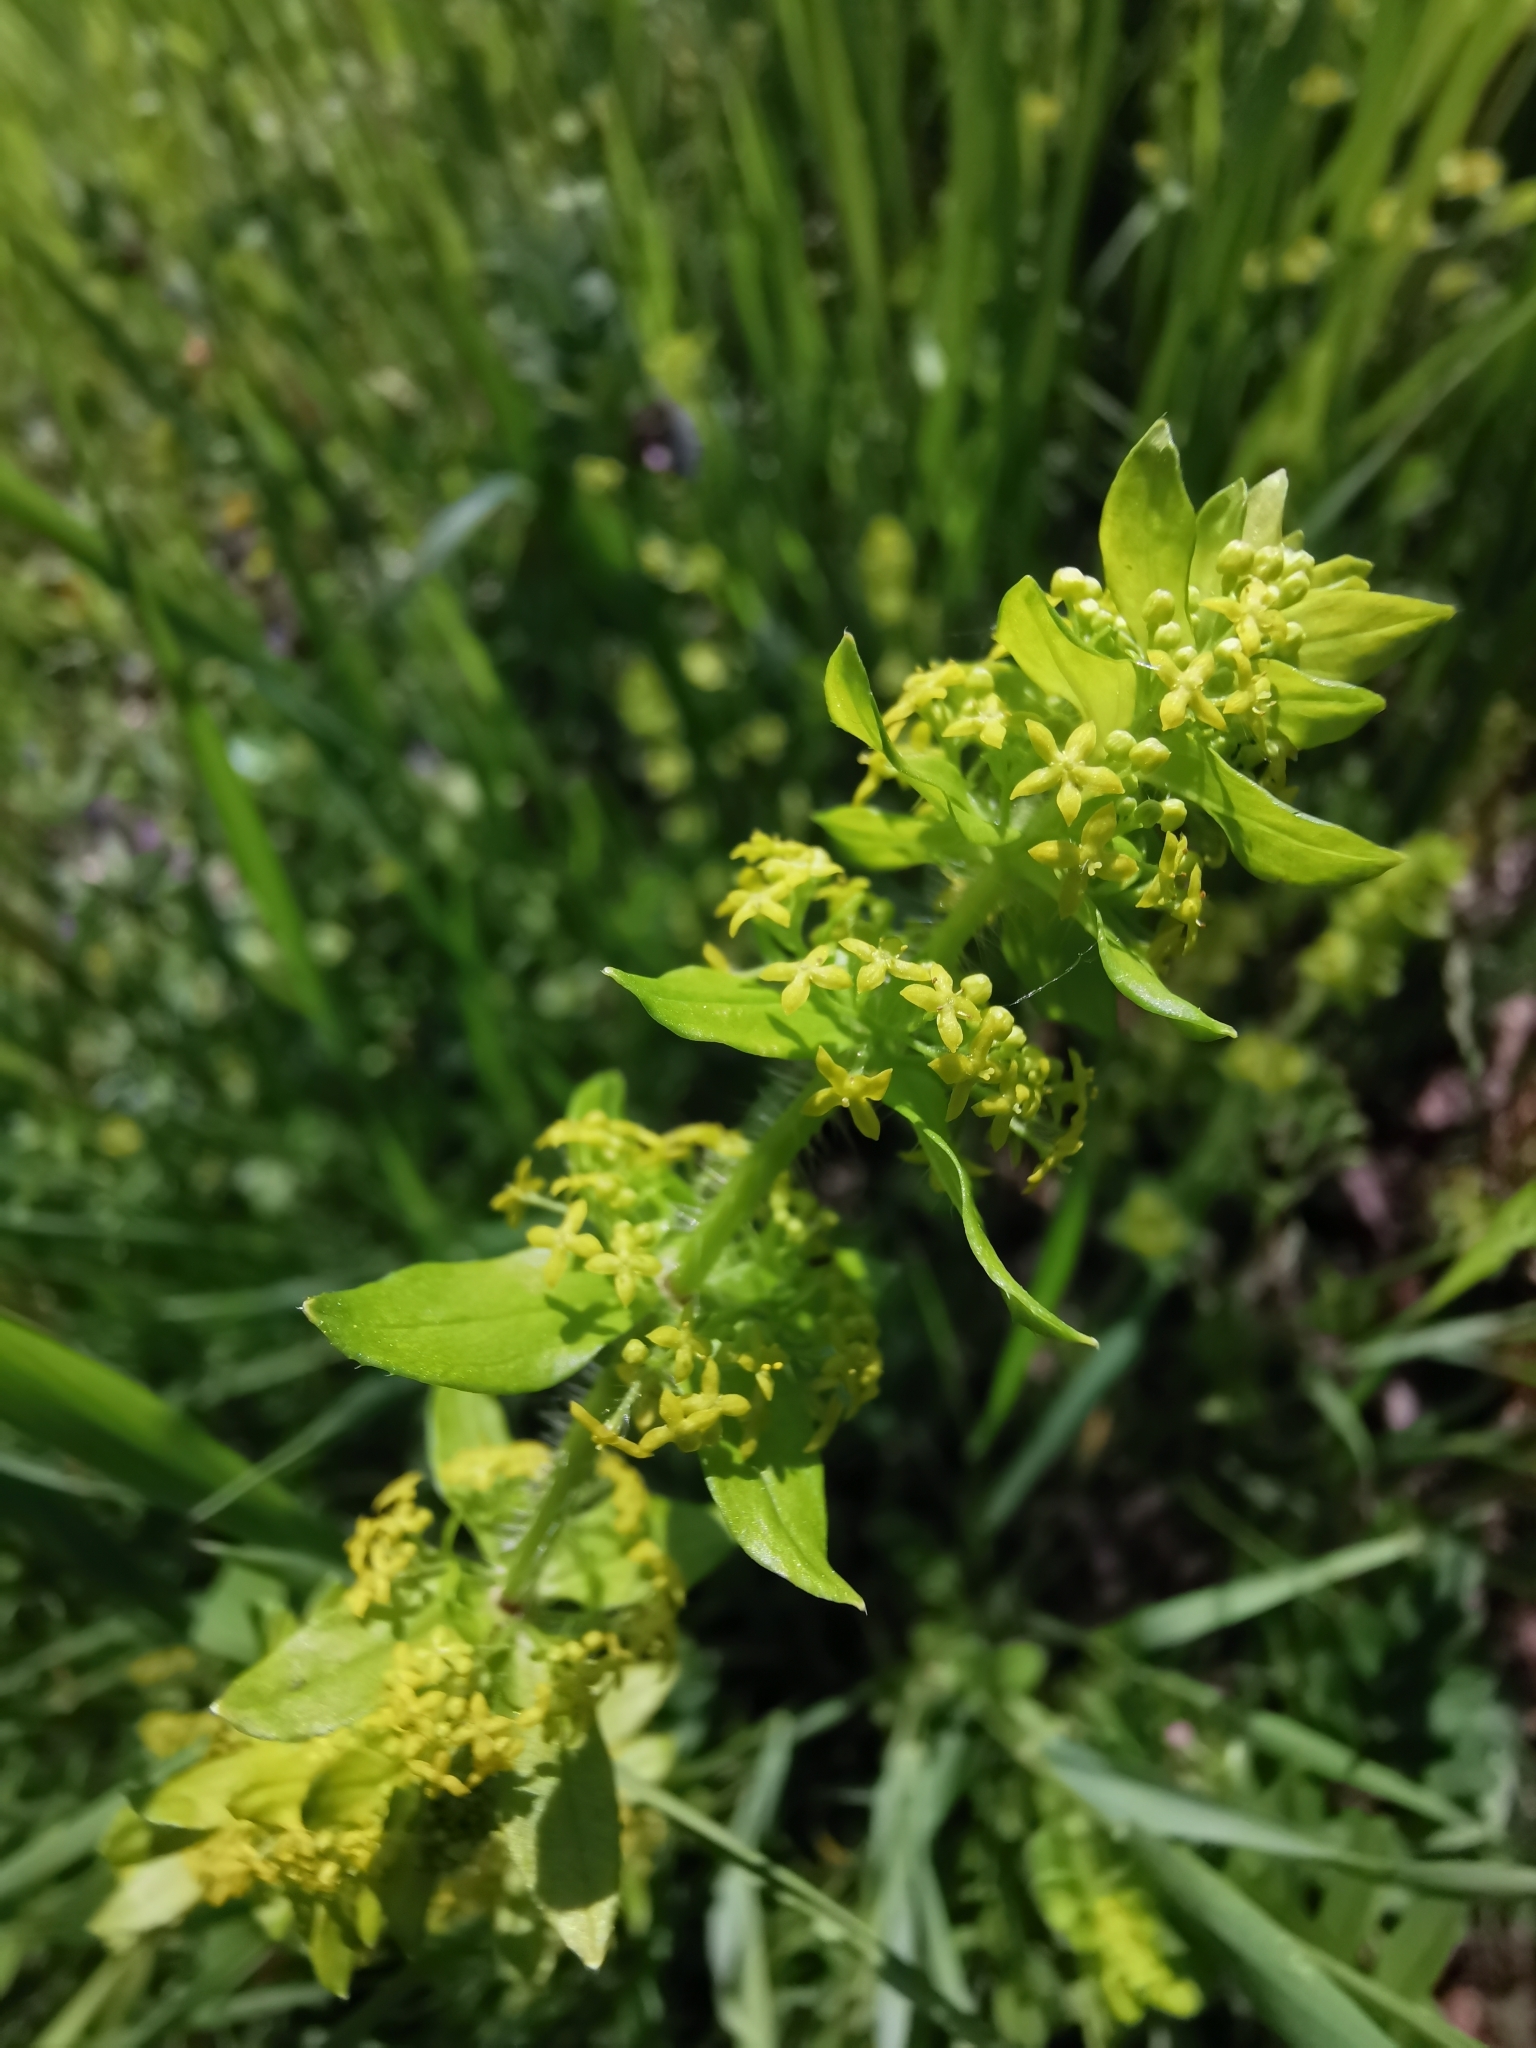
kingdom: Plantae
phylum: Tracheophyta
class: Magnoliopsida
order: Gentianales
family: Rubiaceae
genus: Cruciata
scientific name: Cruciata laevipes
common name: Crosswort
